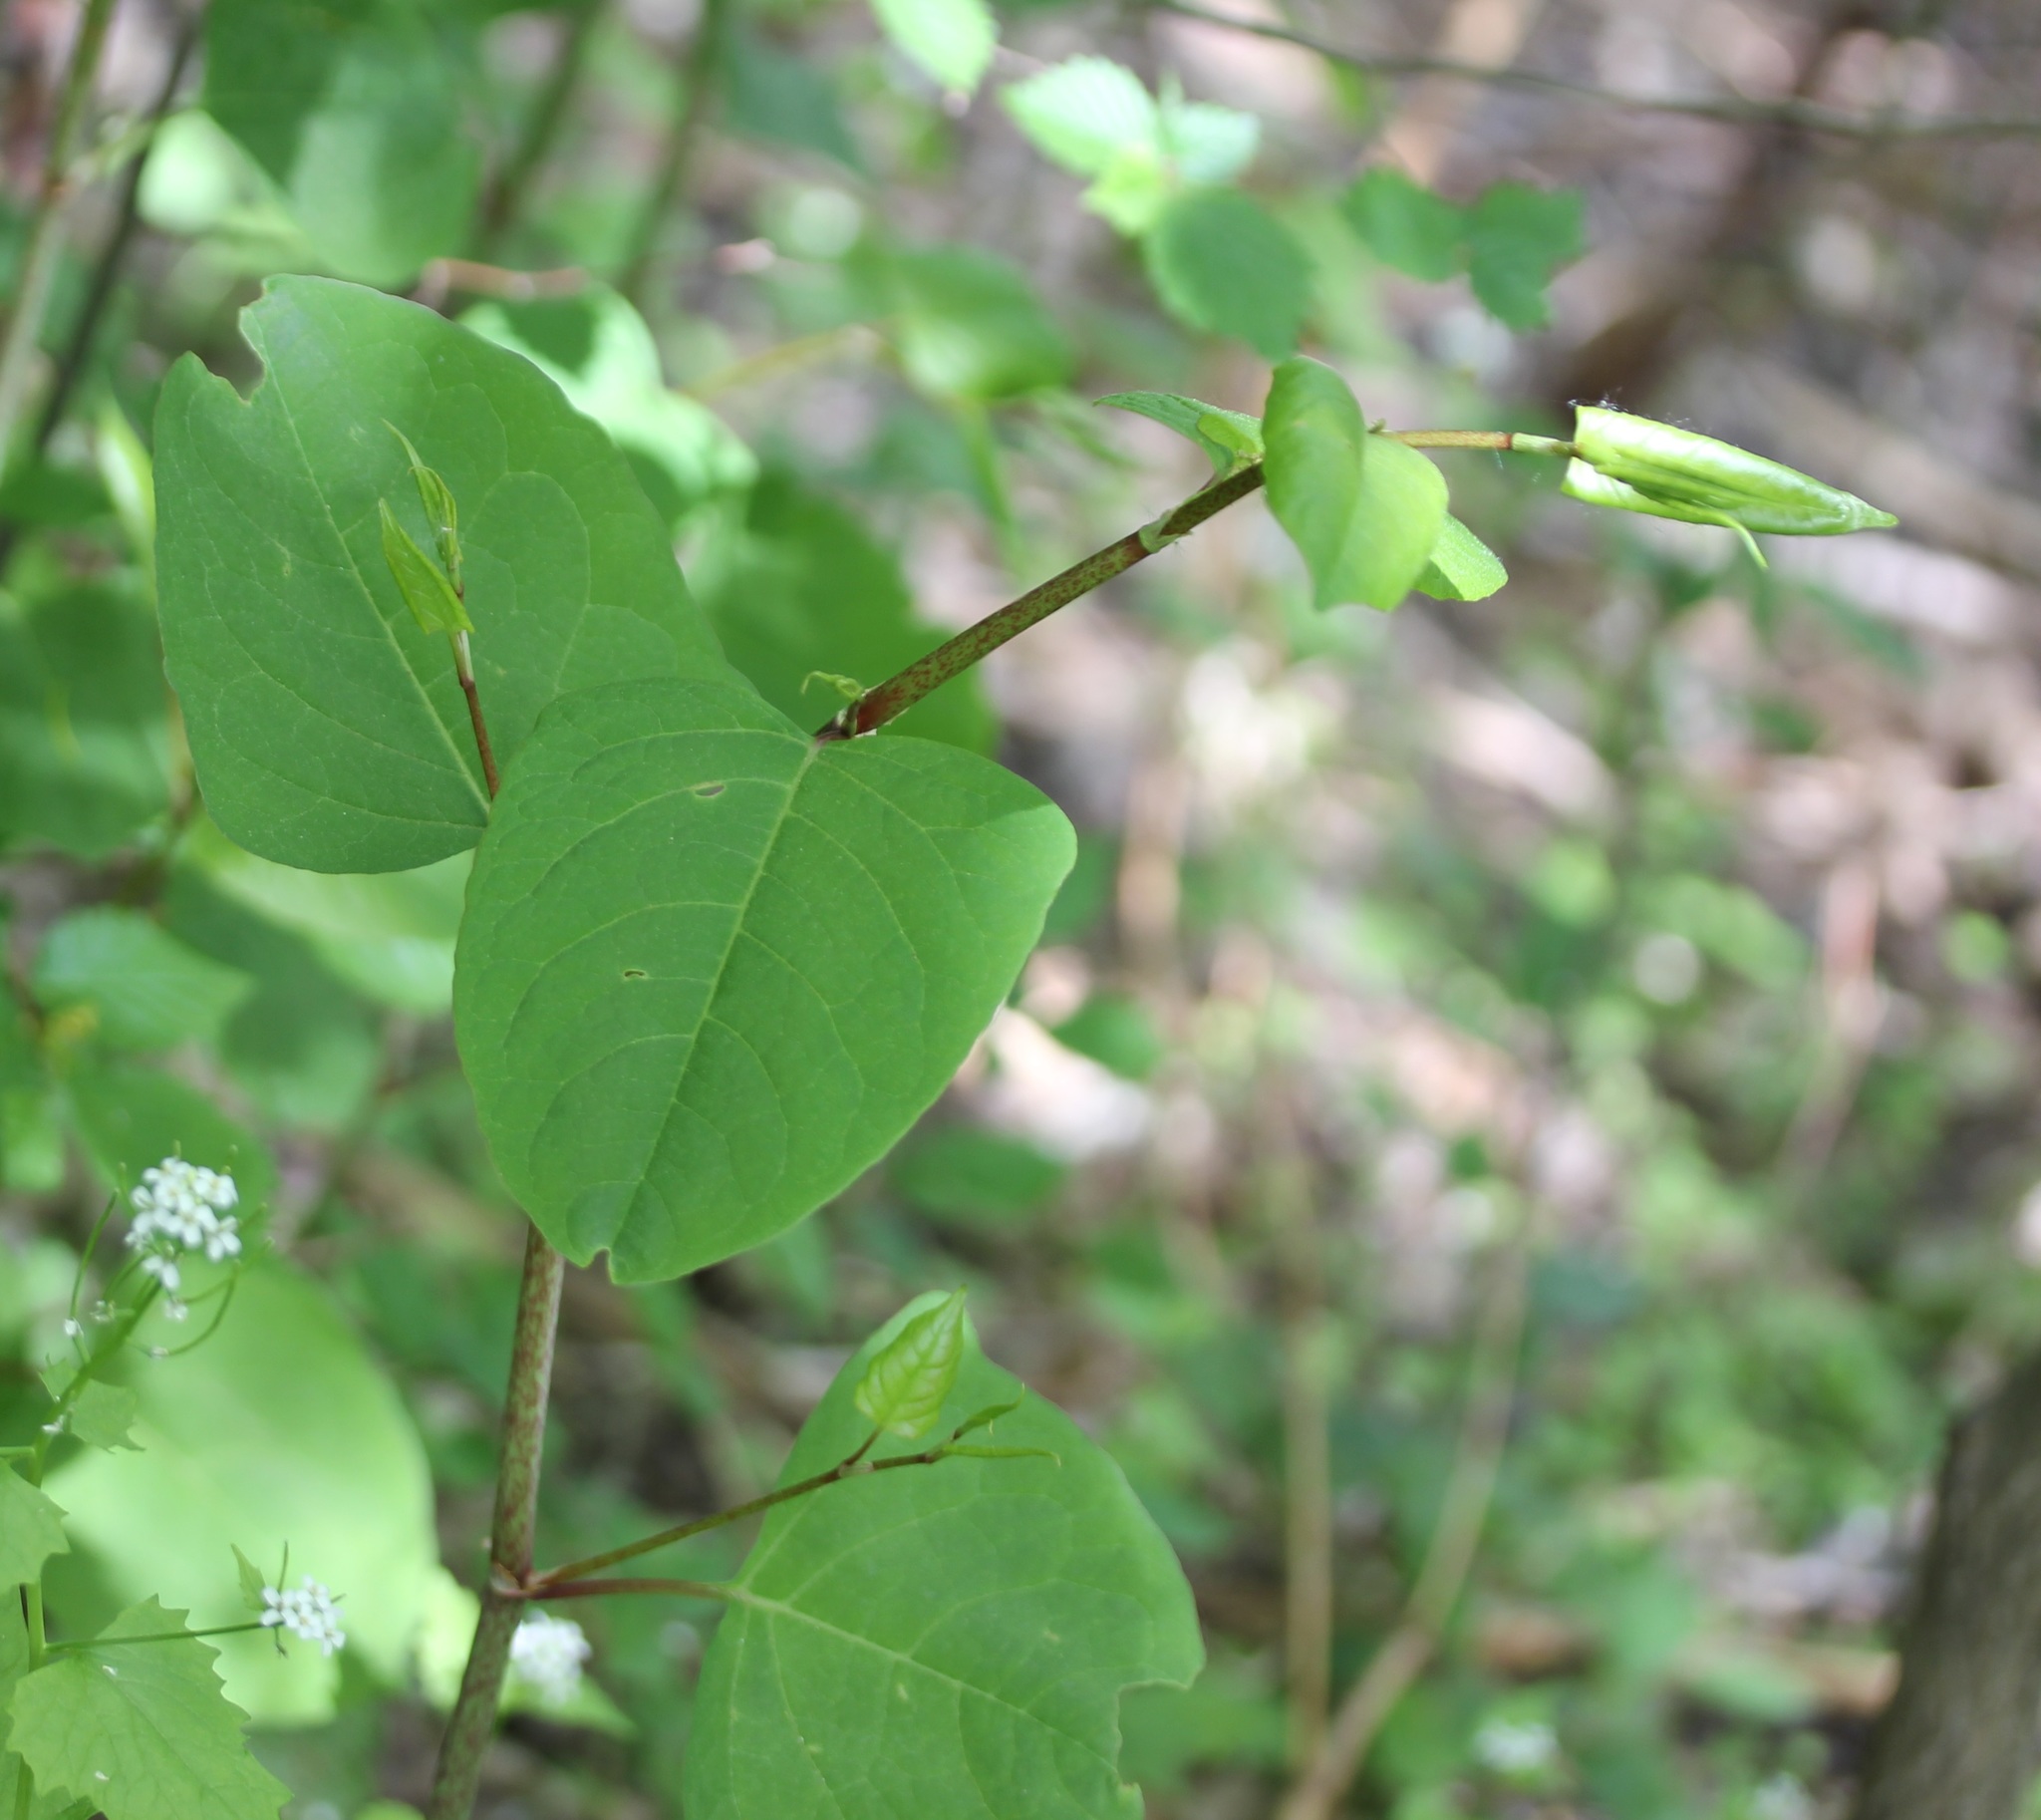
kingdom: Plantae
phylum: Tracheophyta
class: Magnoliopsida
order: Caryophyllales
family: Polygonaceae
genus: Reynoutria
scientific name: Reynoutria japonica
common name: Japanese knotweed
